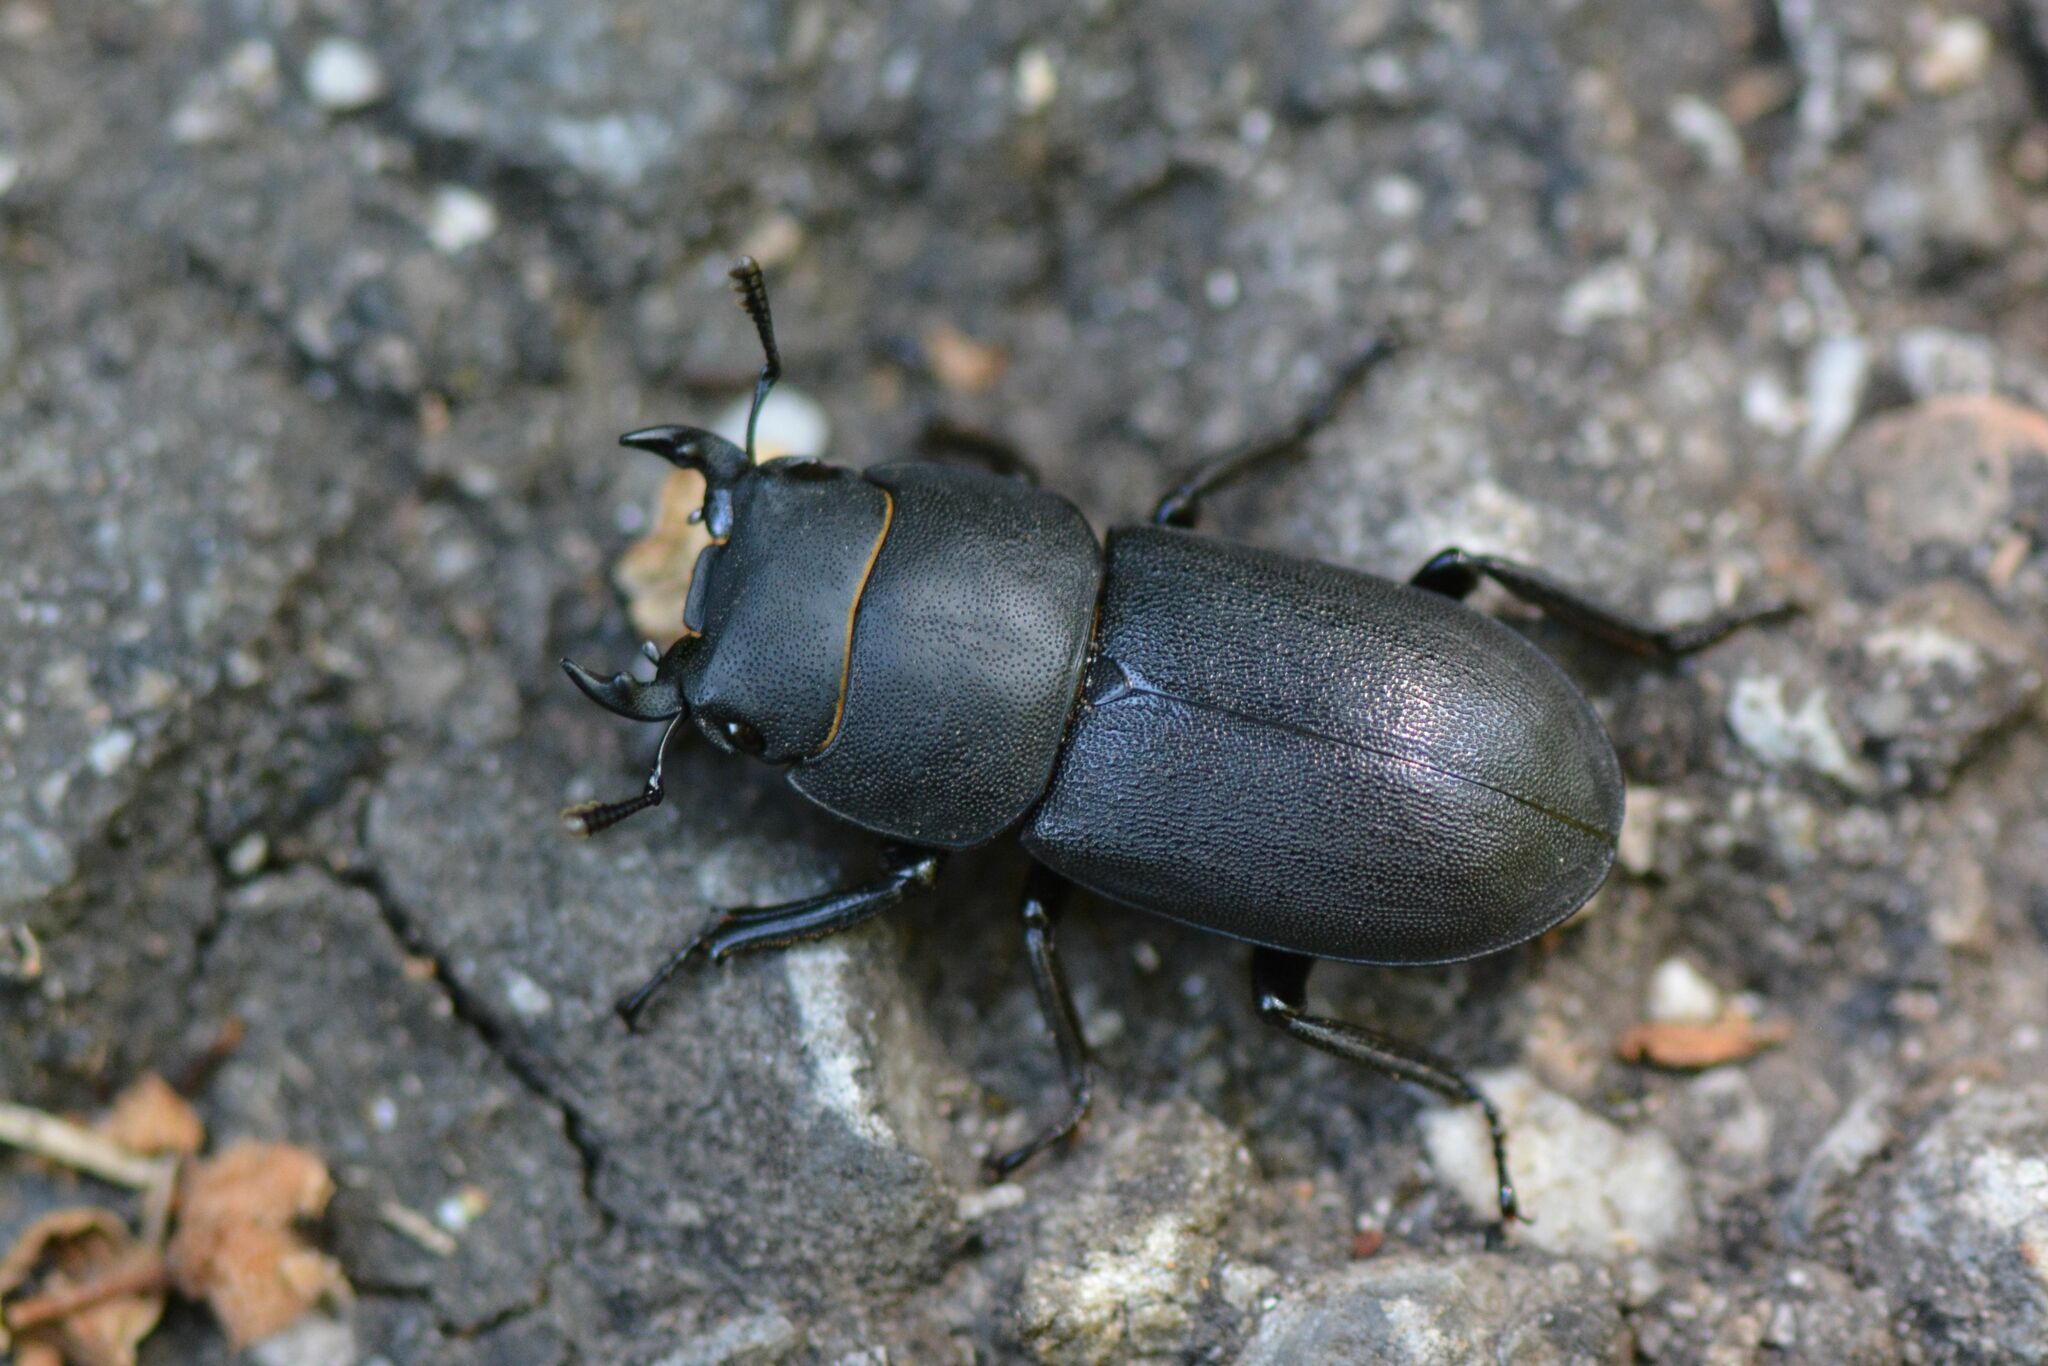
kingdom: Animalia
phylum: Arthropoda
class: Insecta
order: Coleoptera
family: Lucanidae
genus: Dorcus
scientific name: Dorcus parallelipipedus
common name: Lesser stag beetle
